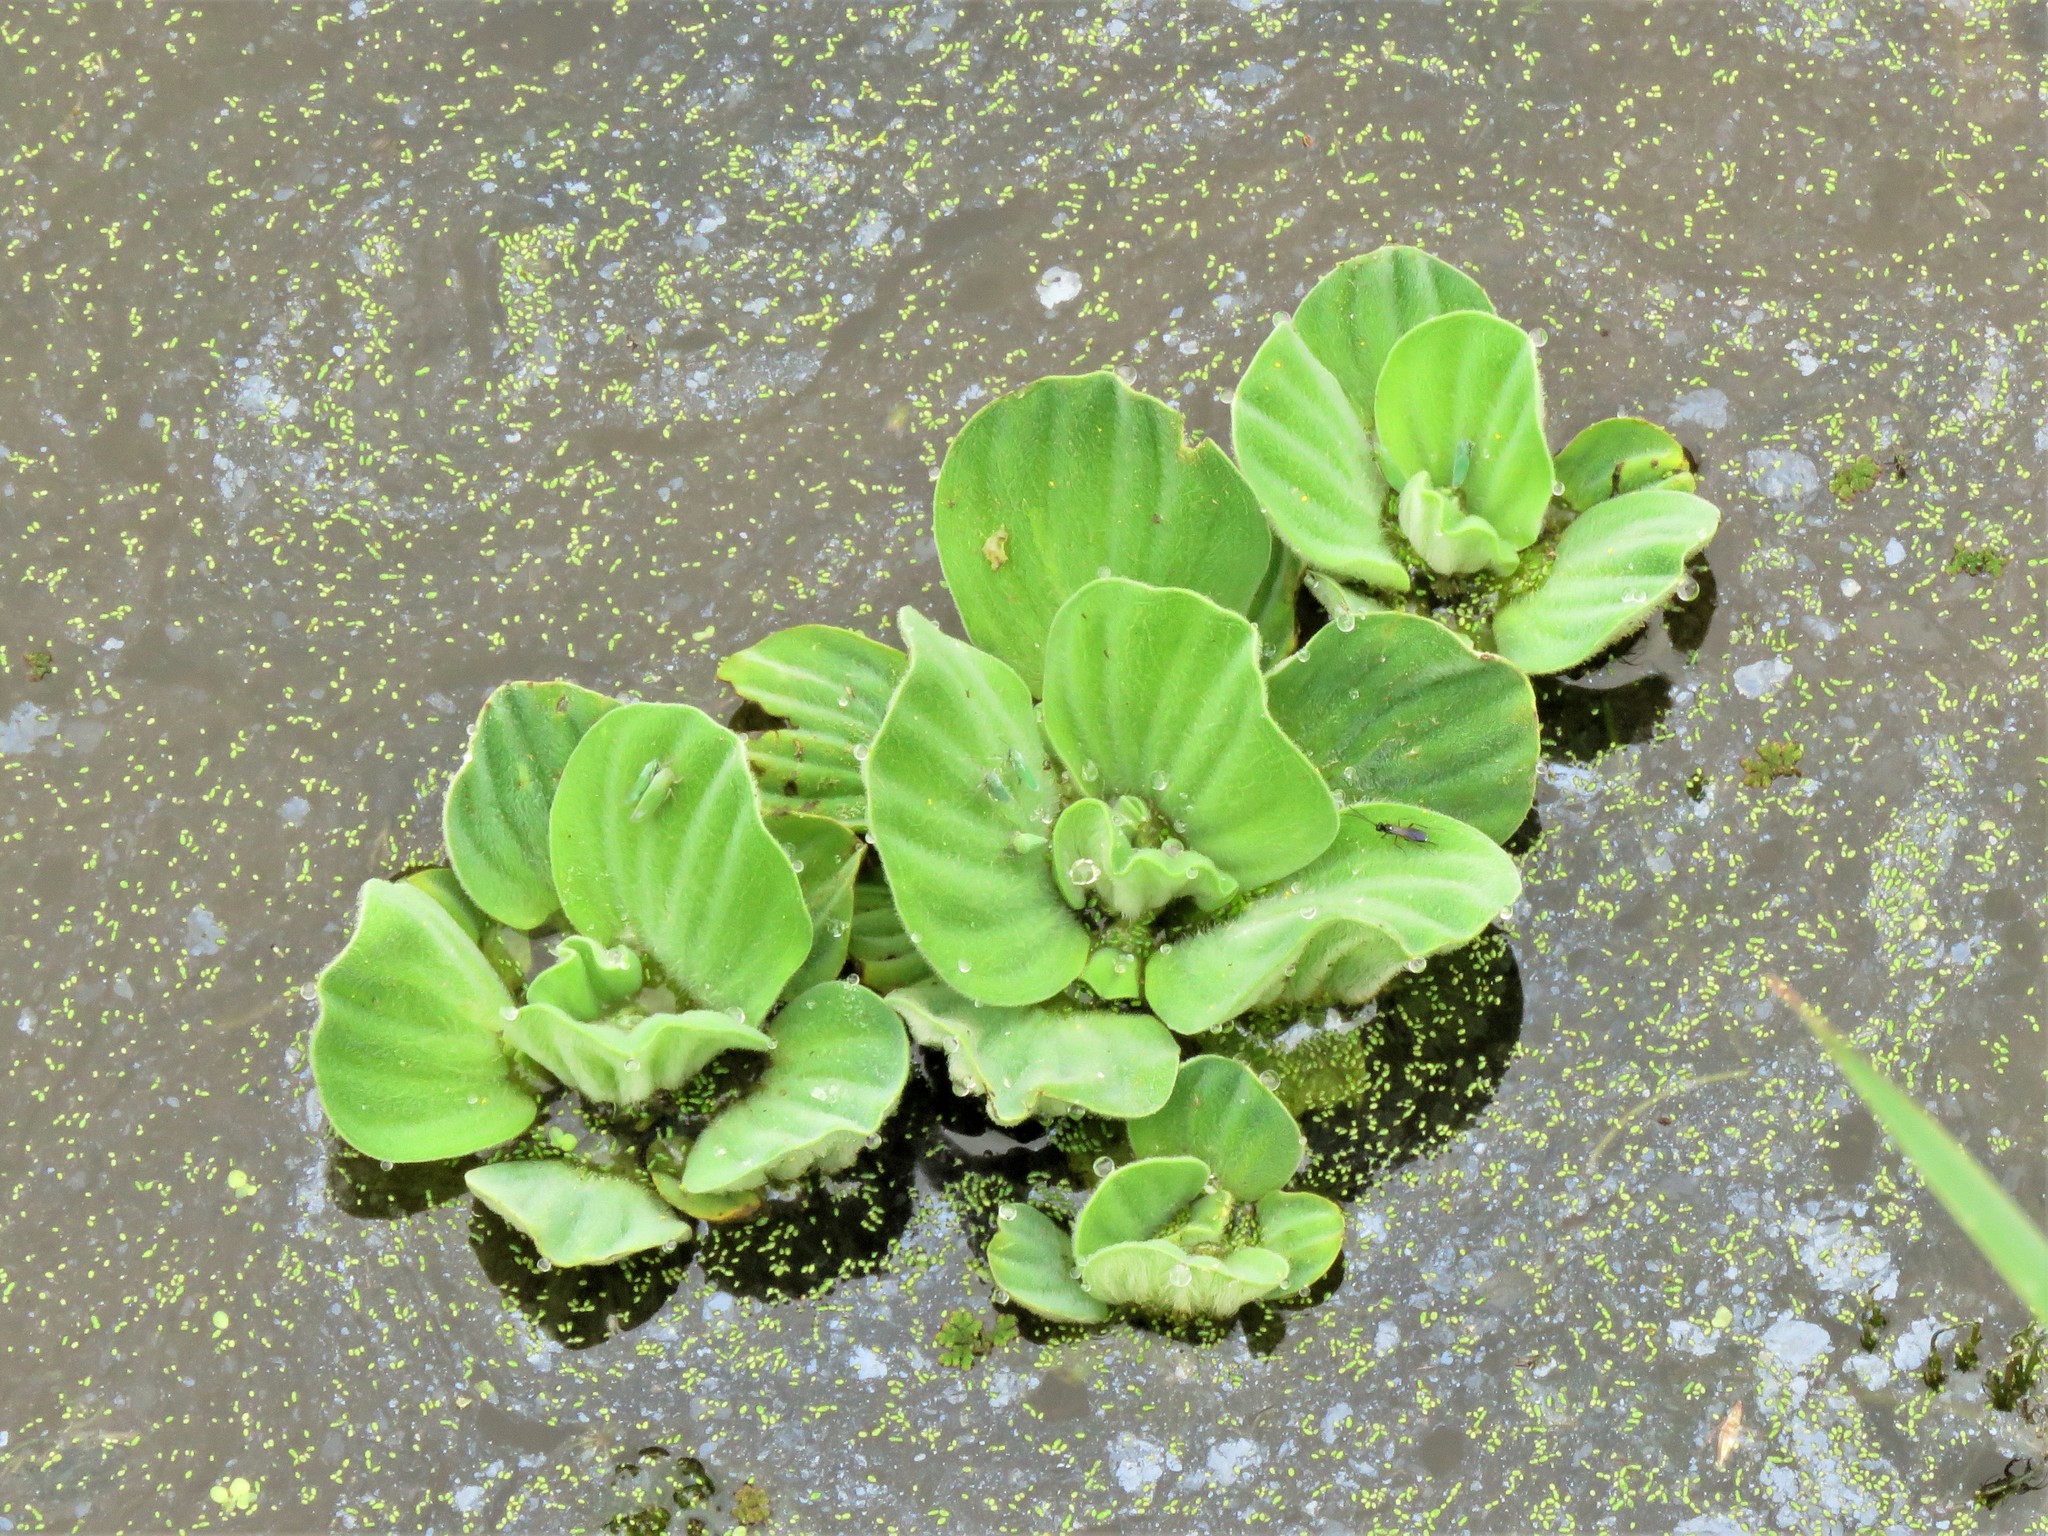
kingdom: Plantae
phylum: Tracheophyta
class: Liliopsida
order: Alismatales
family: Araceae
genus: Pistia
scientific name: Pistia stratiotes
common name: Water lettuce
